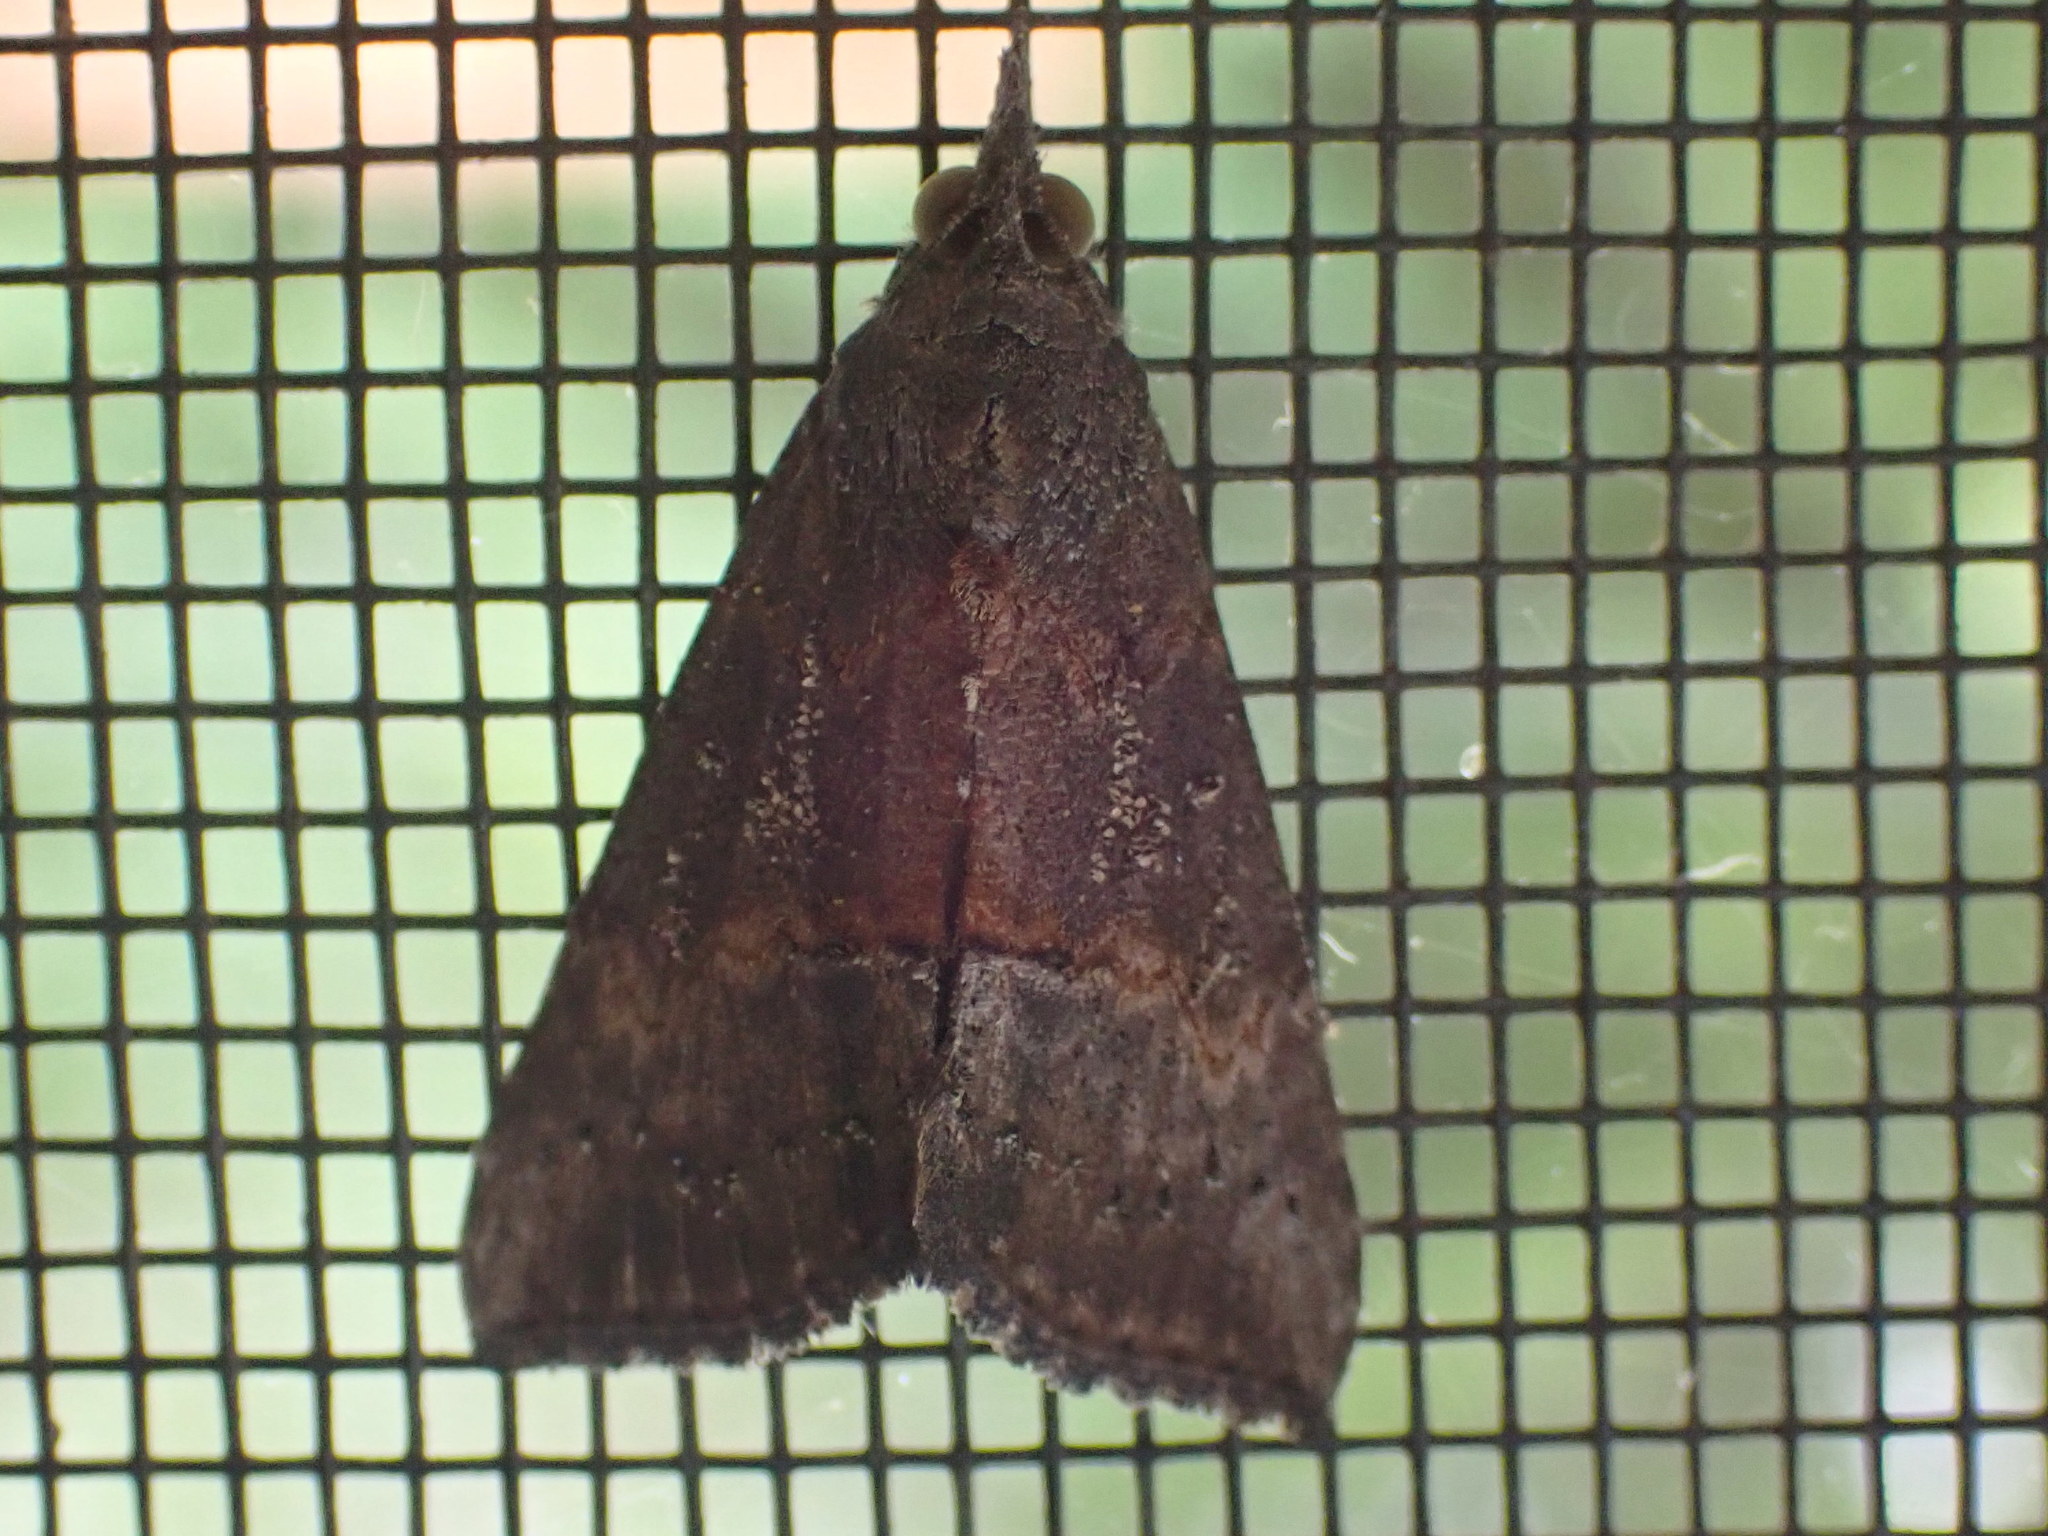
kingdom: Animalia
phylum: Arthropoda
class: Insecta
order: Lepidoptera
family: Erebidae
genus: Hypena
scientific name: Hypena scabra
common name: Green cloverworm
